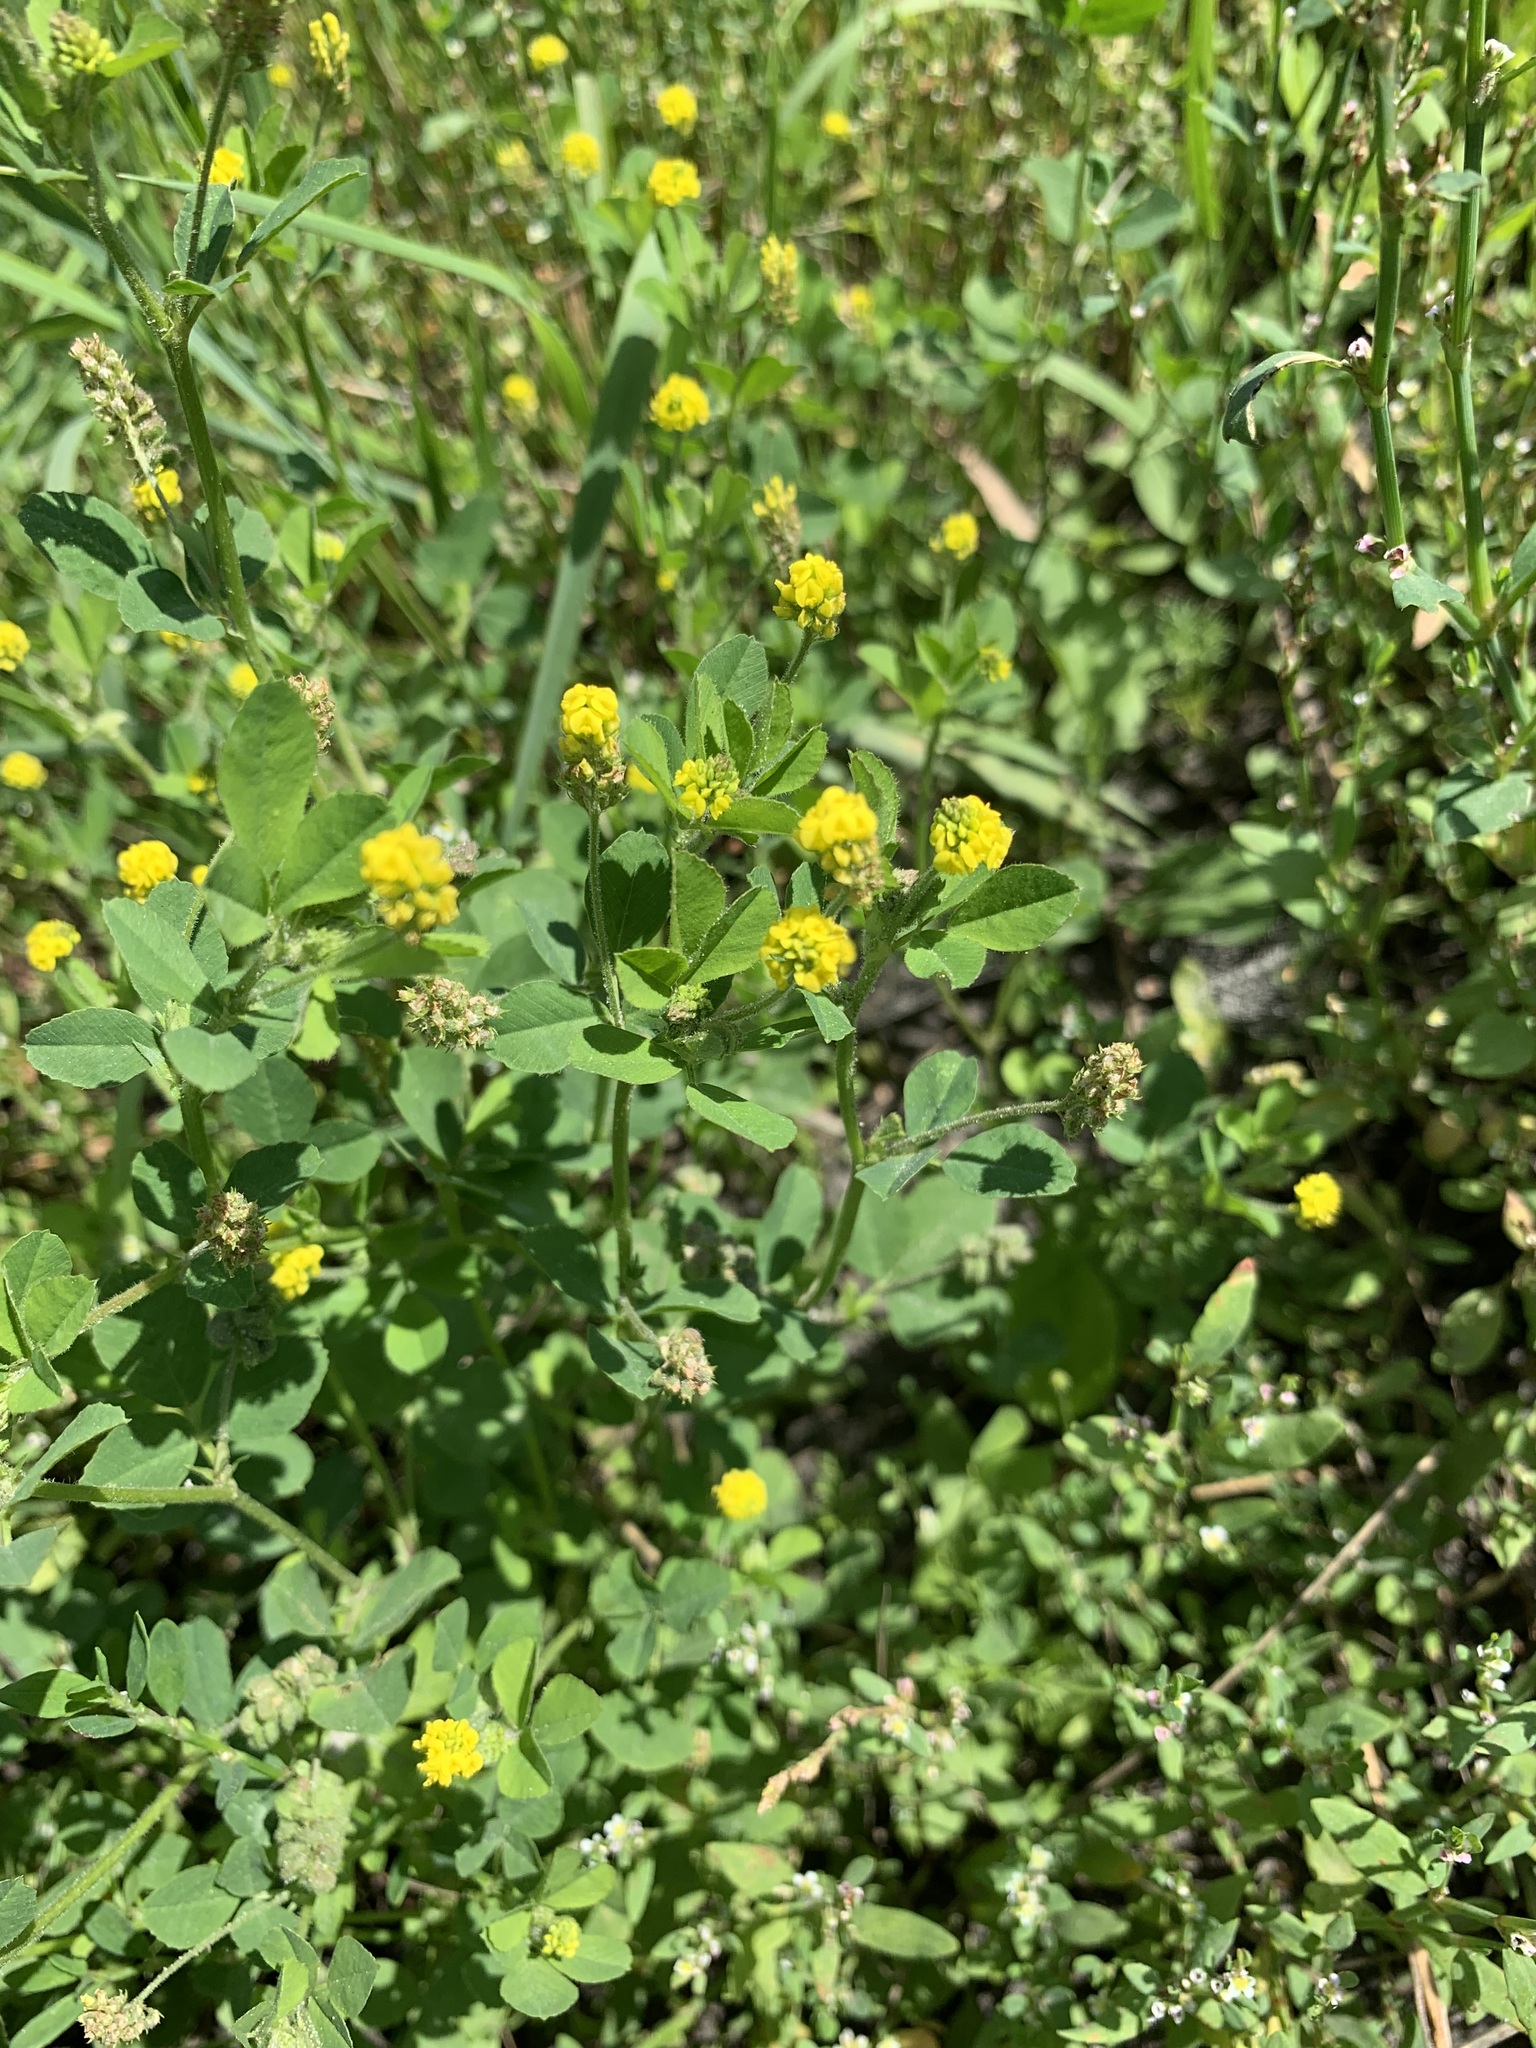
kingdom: Plantae
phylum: Tracheophyta
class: Magnoliopsida
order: Fabales
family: Fabaceae
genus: Medicago
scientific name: Medicago lupulina
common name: Black medick
